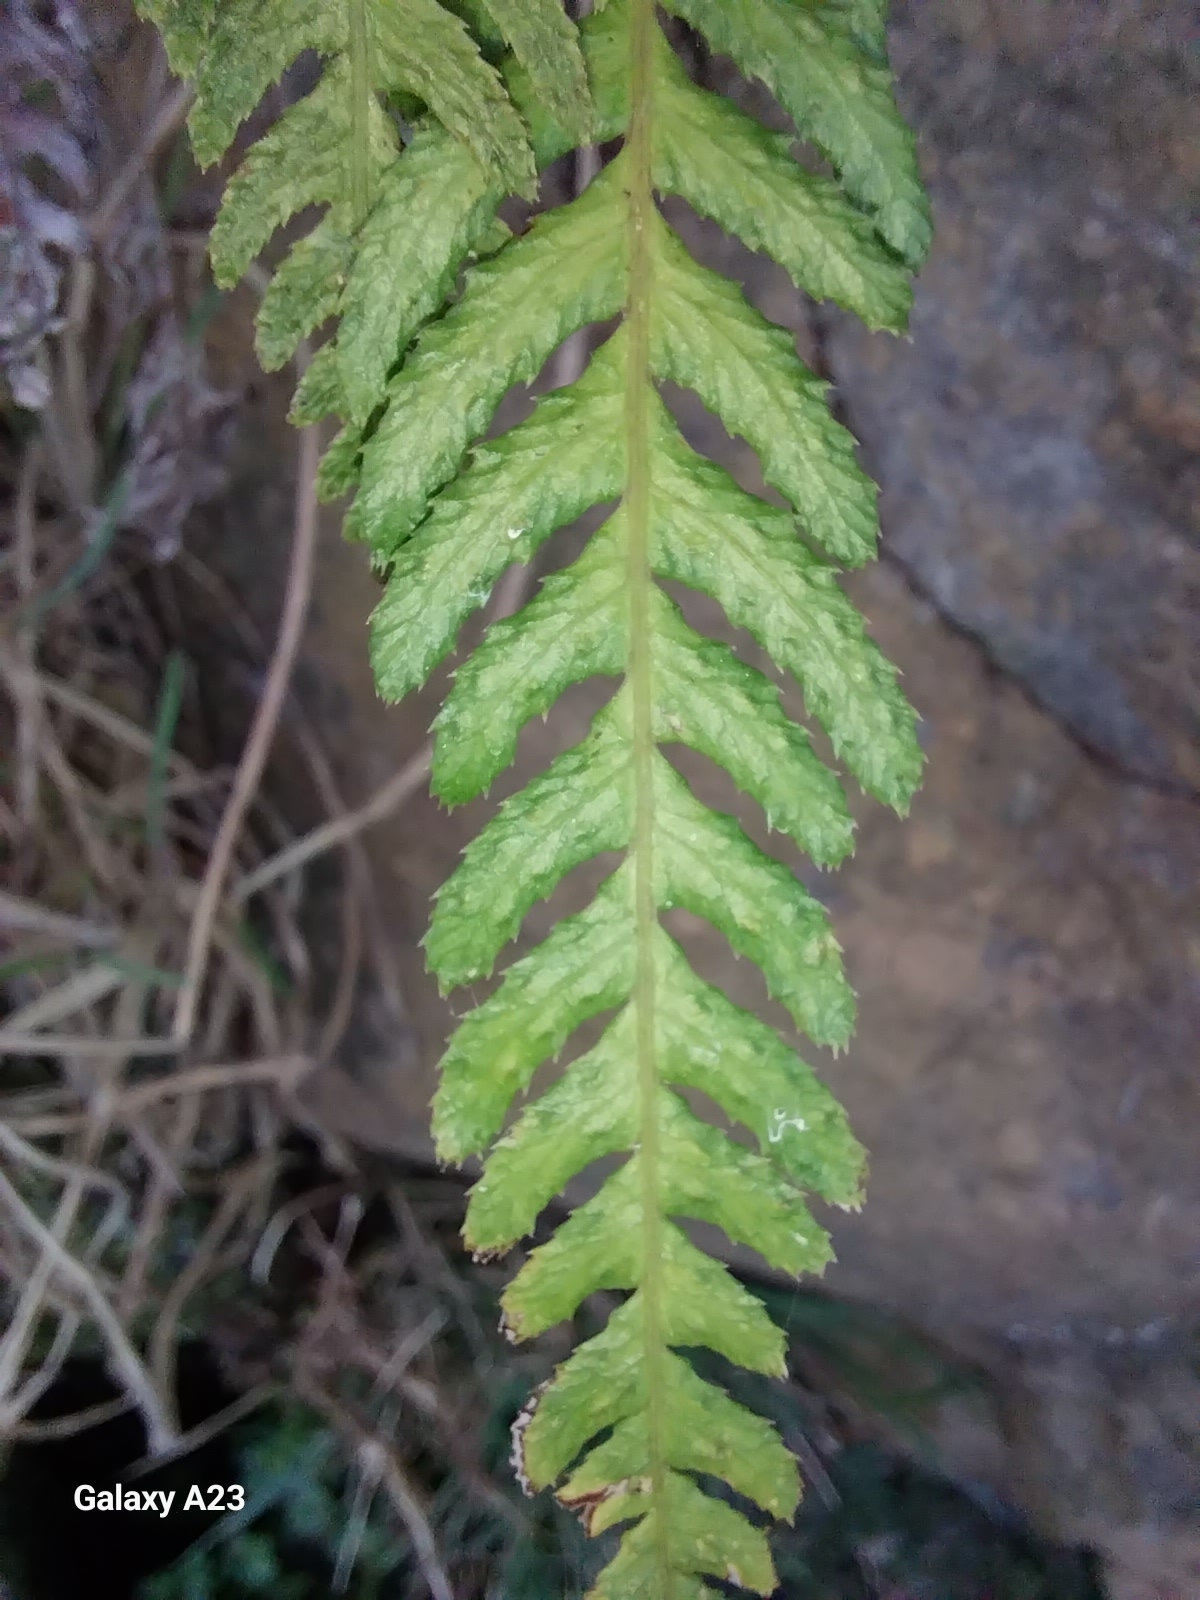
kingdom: Plantae
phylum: Tracheophyta
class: Polypodiopsida
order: Polypodiales
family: Blechnaceae
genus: Doodia
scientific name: Doodia australis
